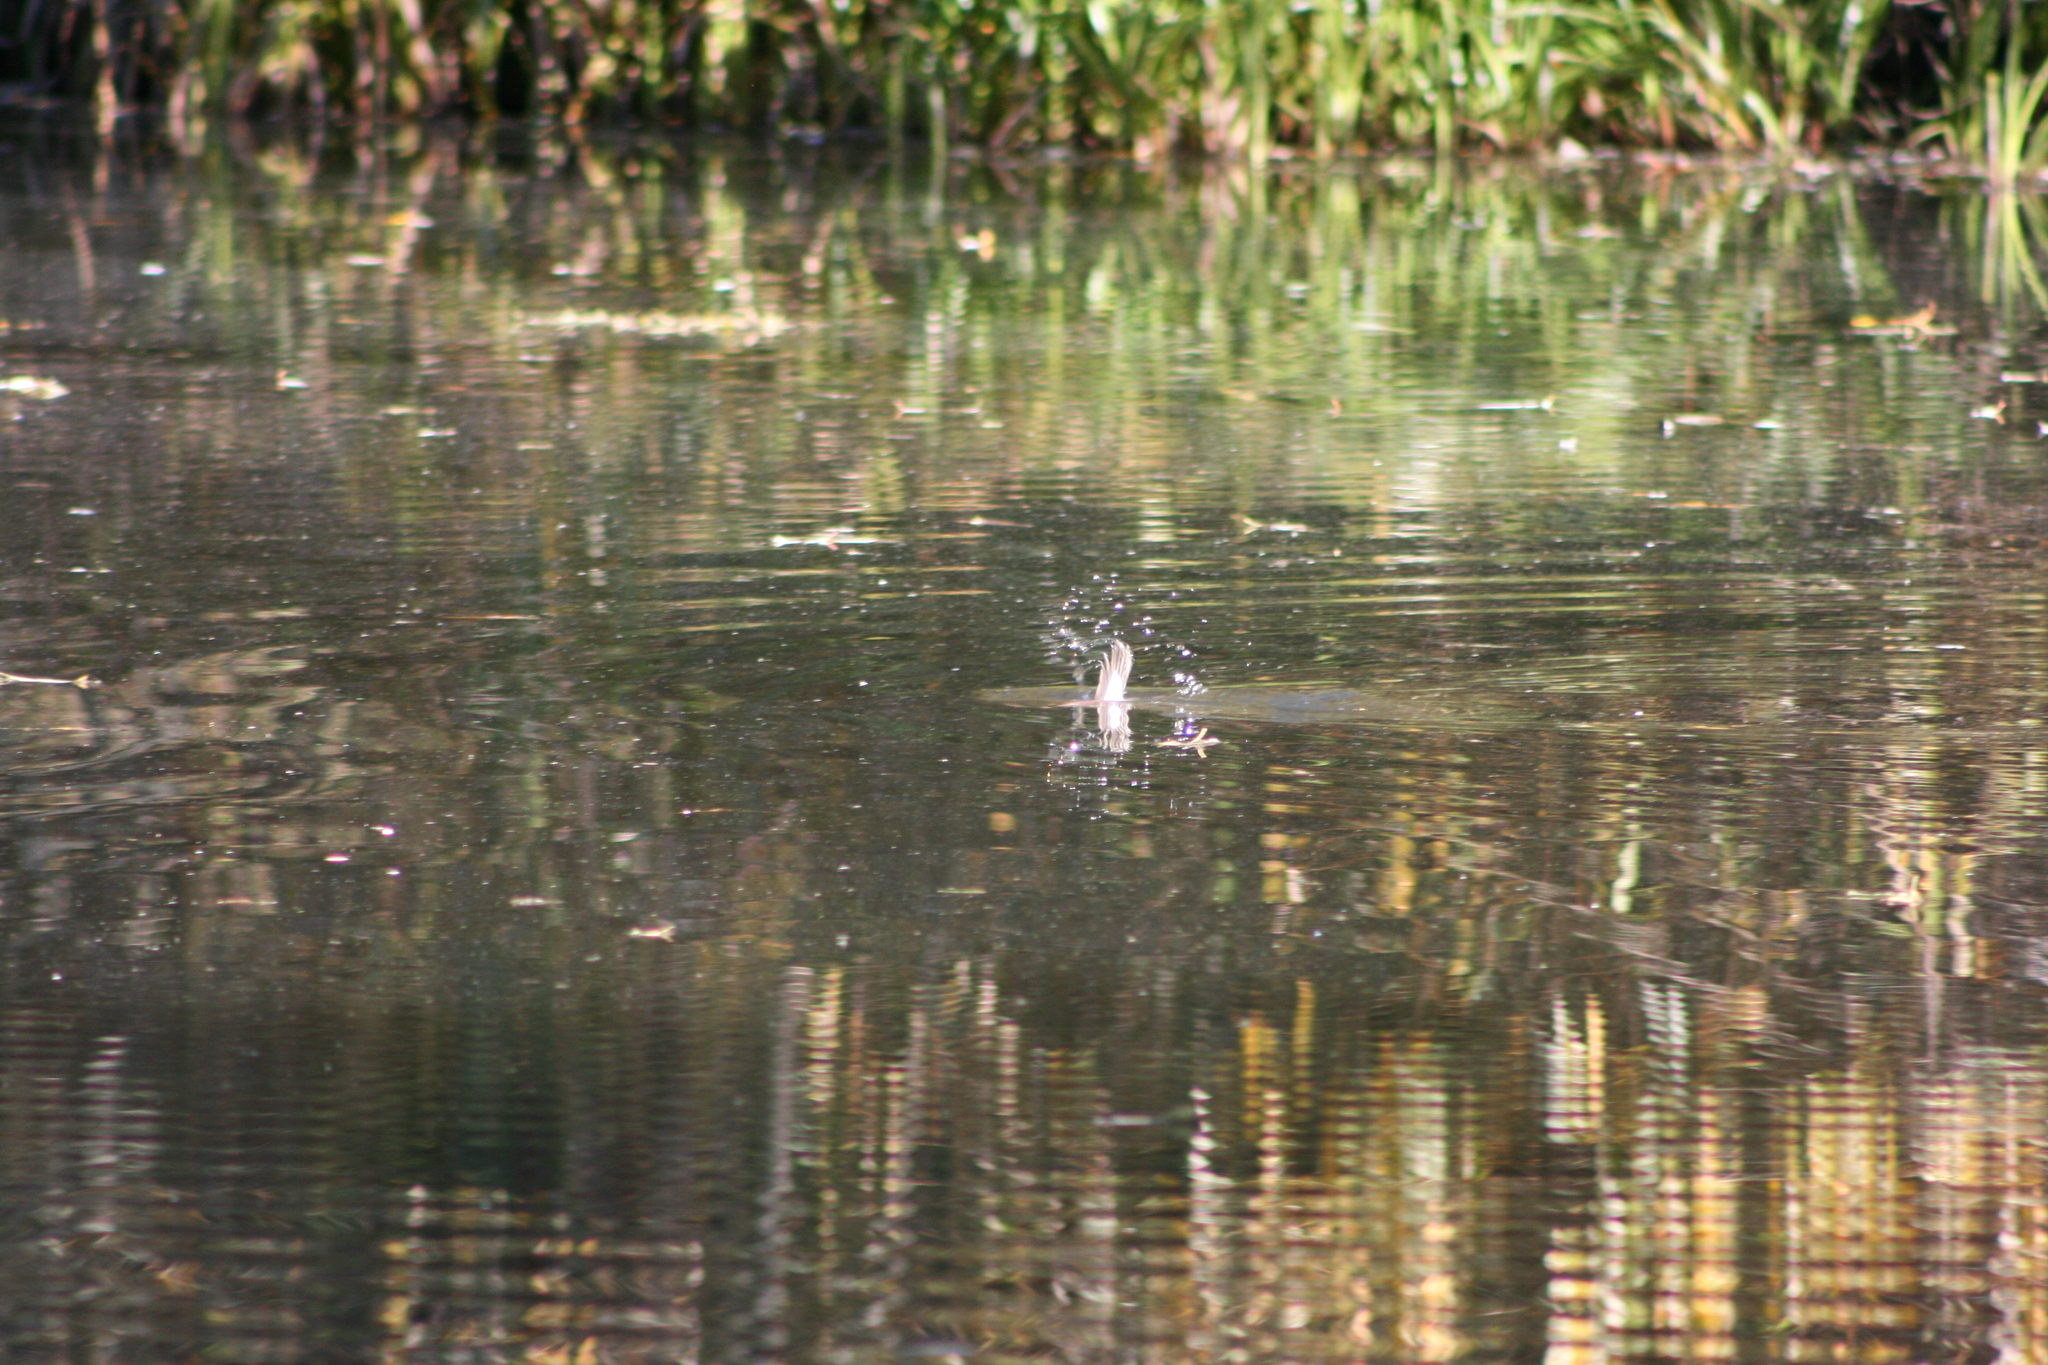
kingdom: Animalia
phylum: Chordata
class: Aves
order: Anseriformes
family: Anatidae
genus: Bucephala
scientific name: Bucephala albeola
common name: Bufflehead
